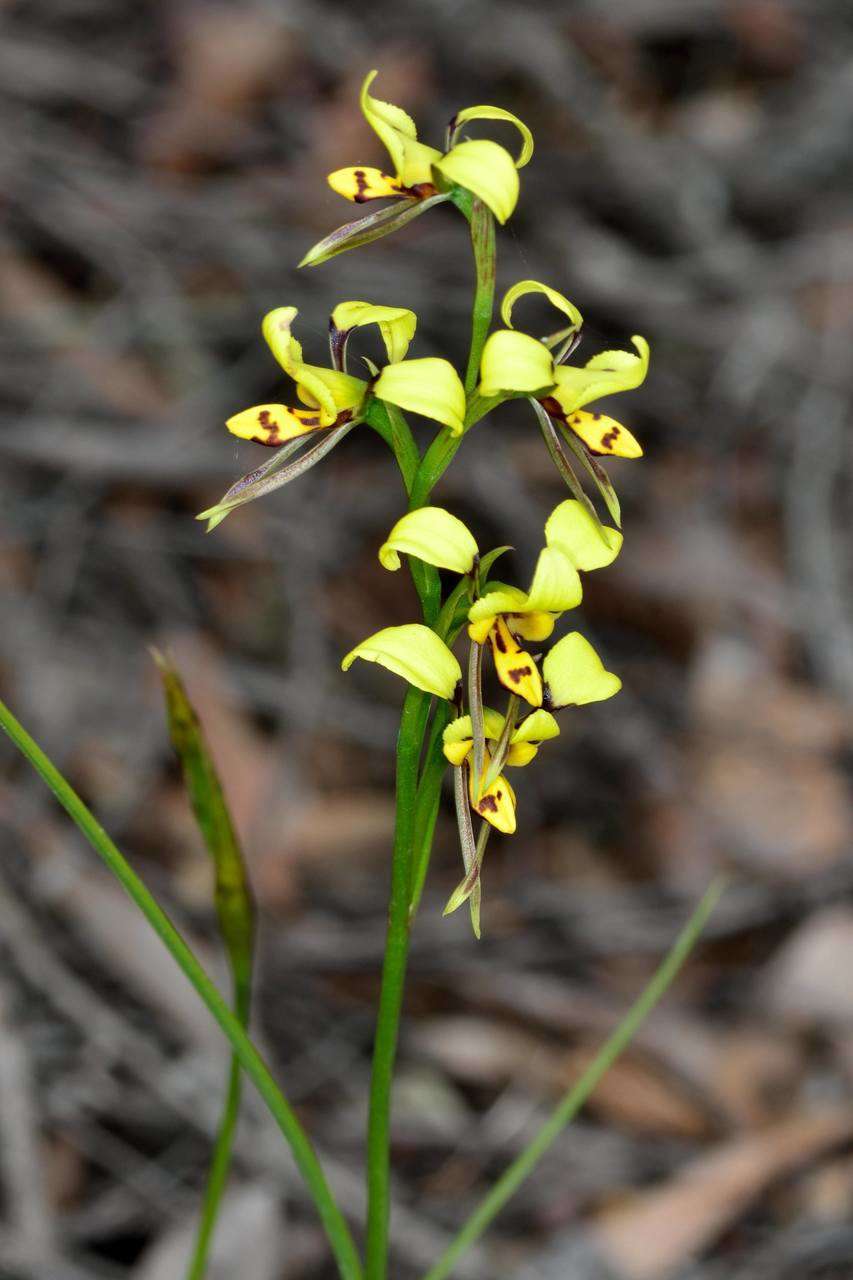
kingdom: Plantae
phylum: Tracheophyta
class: Liliopsida
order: Asparagales
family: Orchidaceae
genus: Diuris
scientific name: Diuris sulphurea
